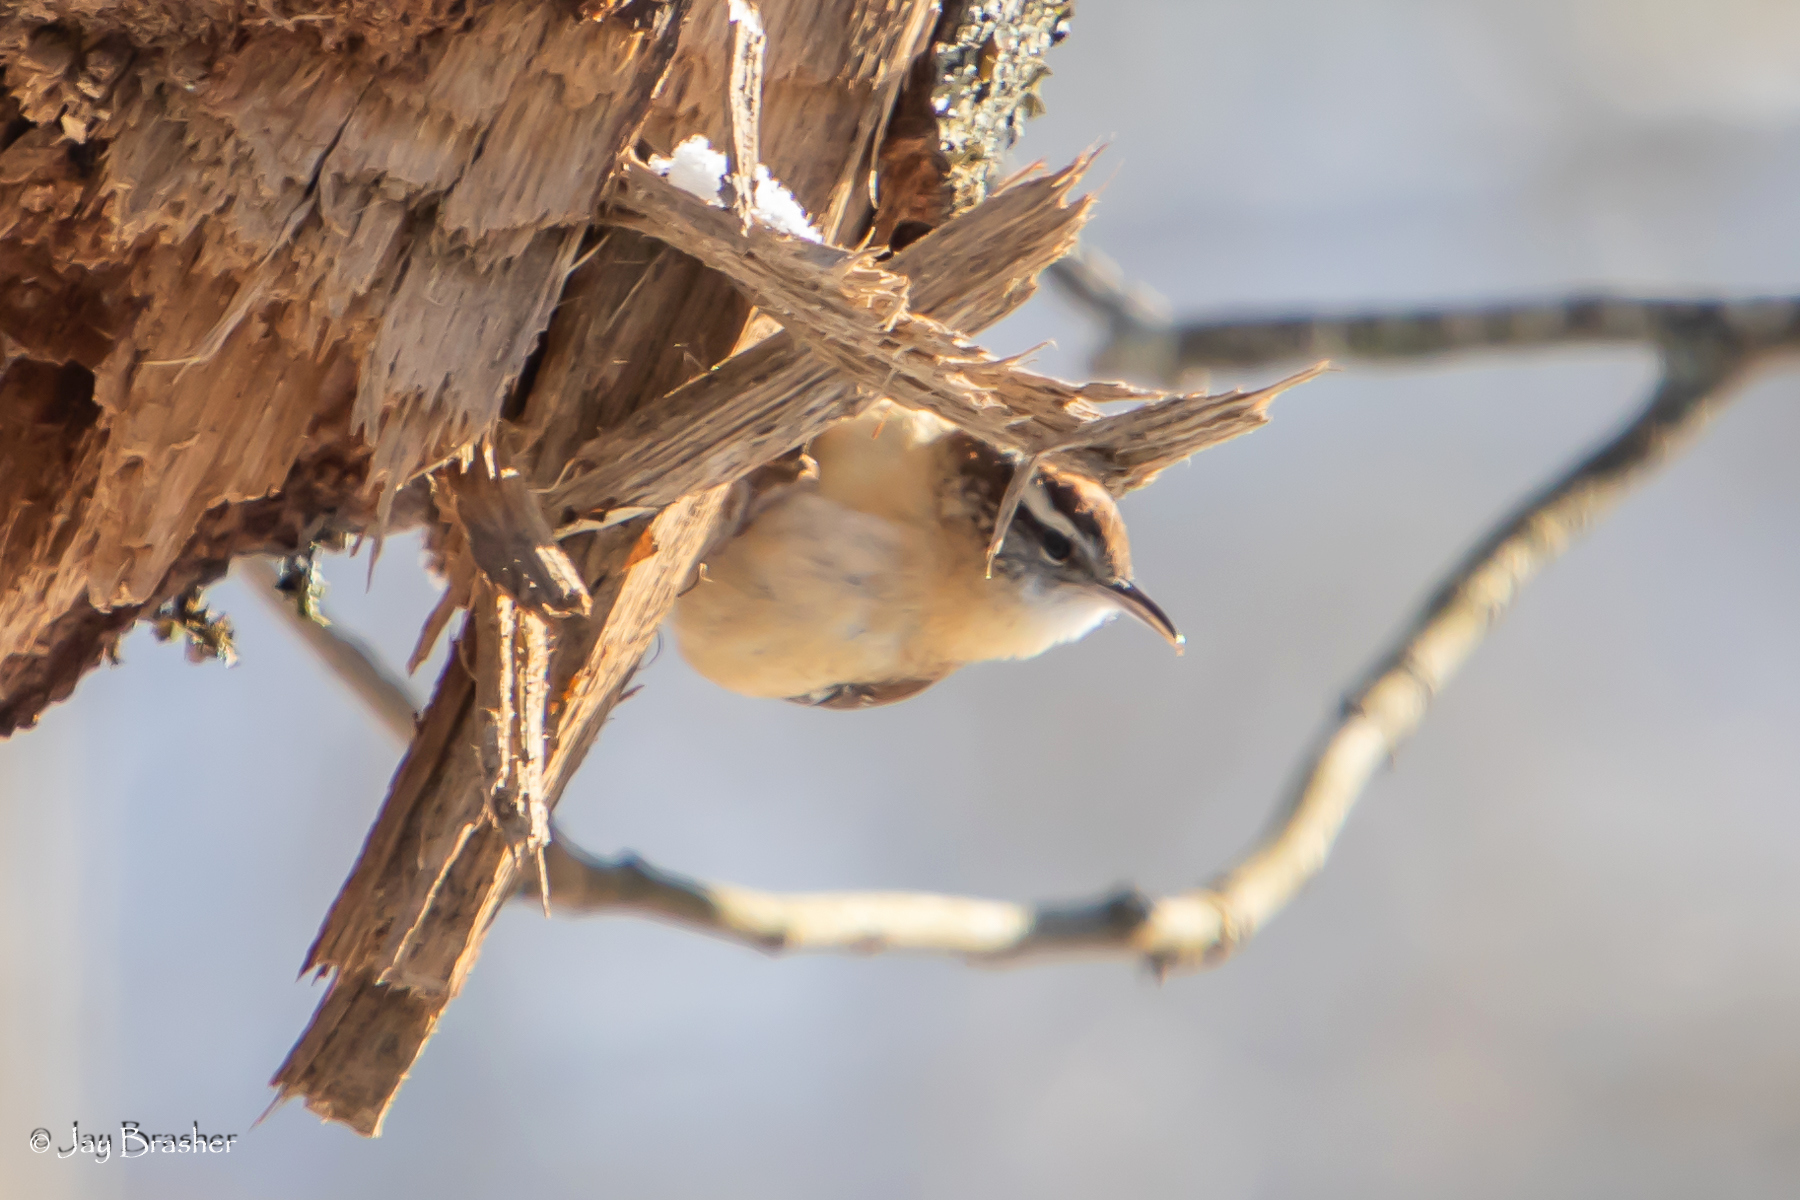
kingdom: Animalia
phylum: Chordata
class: Aves
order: Passeriformes
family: Troglodytidae
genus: Thryothorus
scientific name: Thryothorus ludovicianus
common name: Carolina wren
